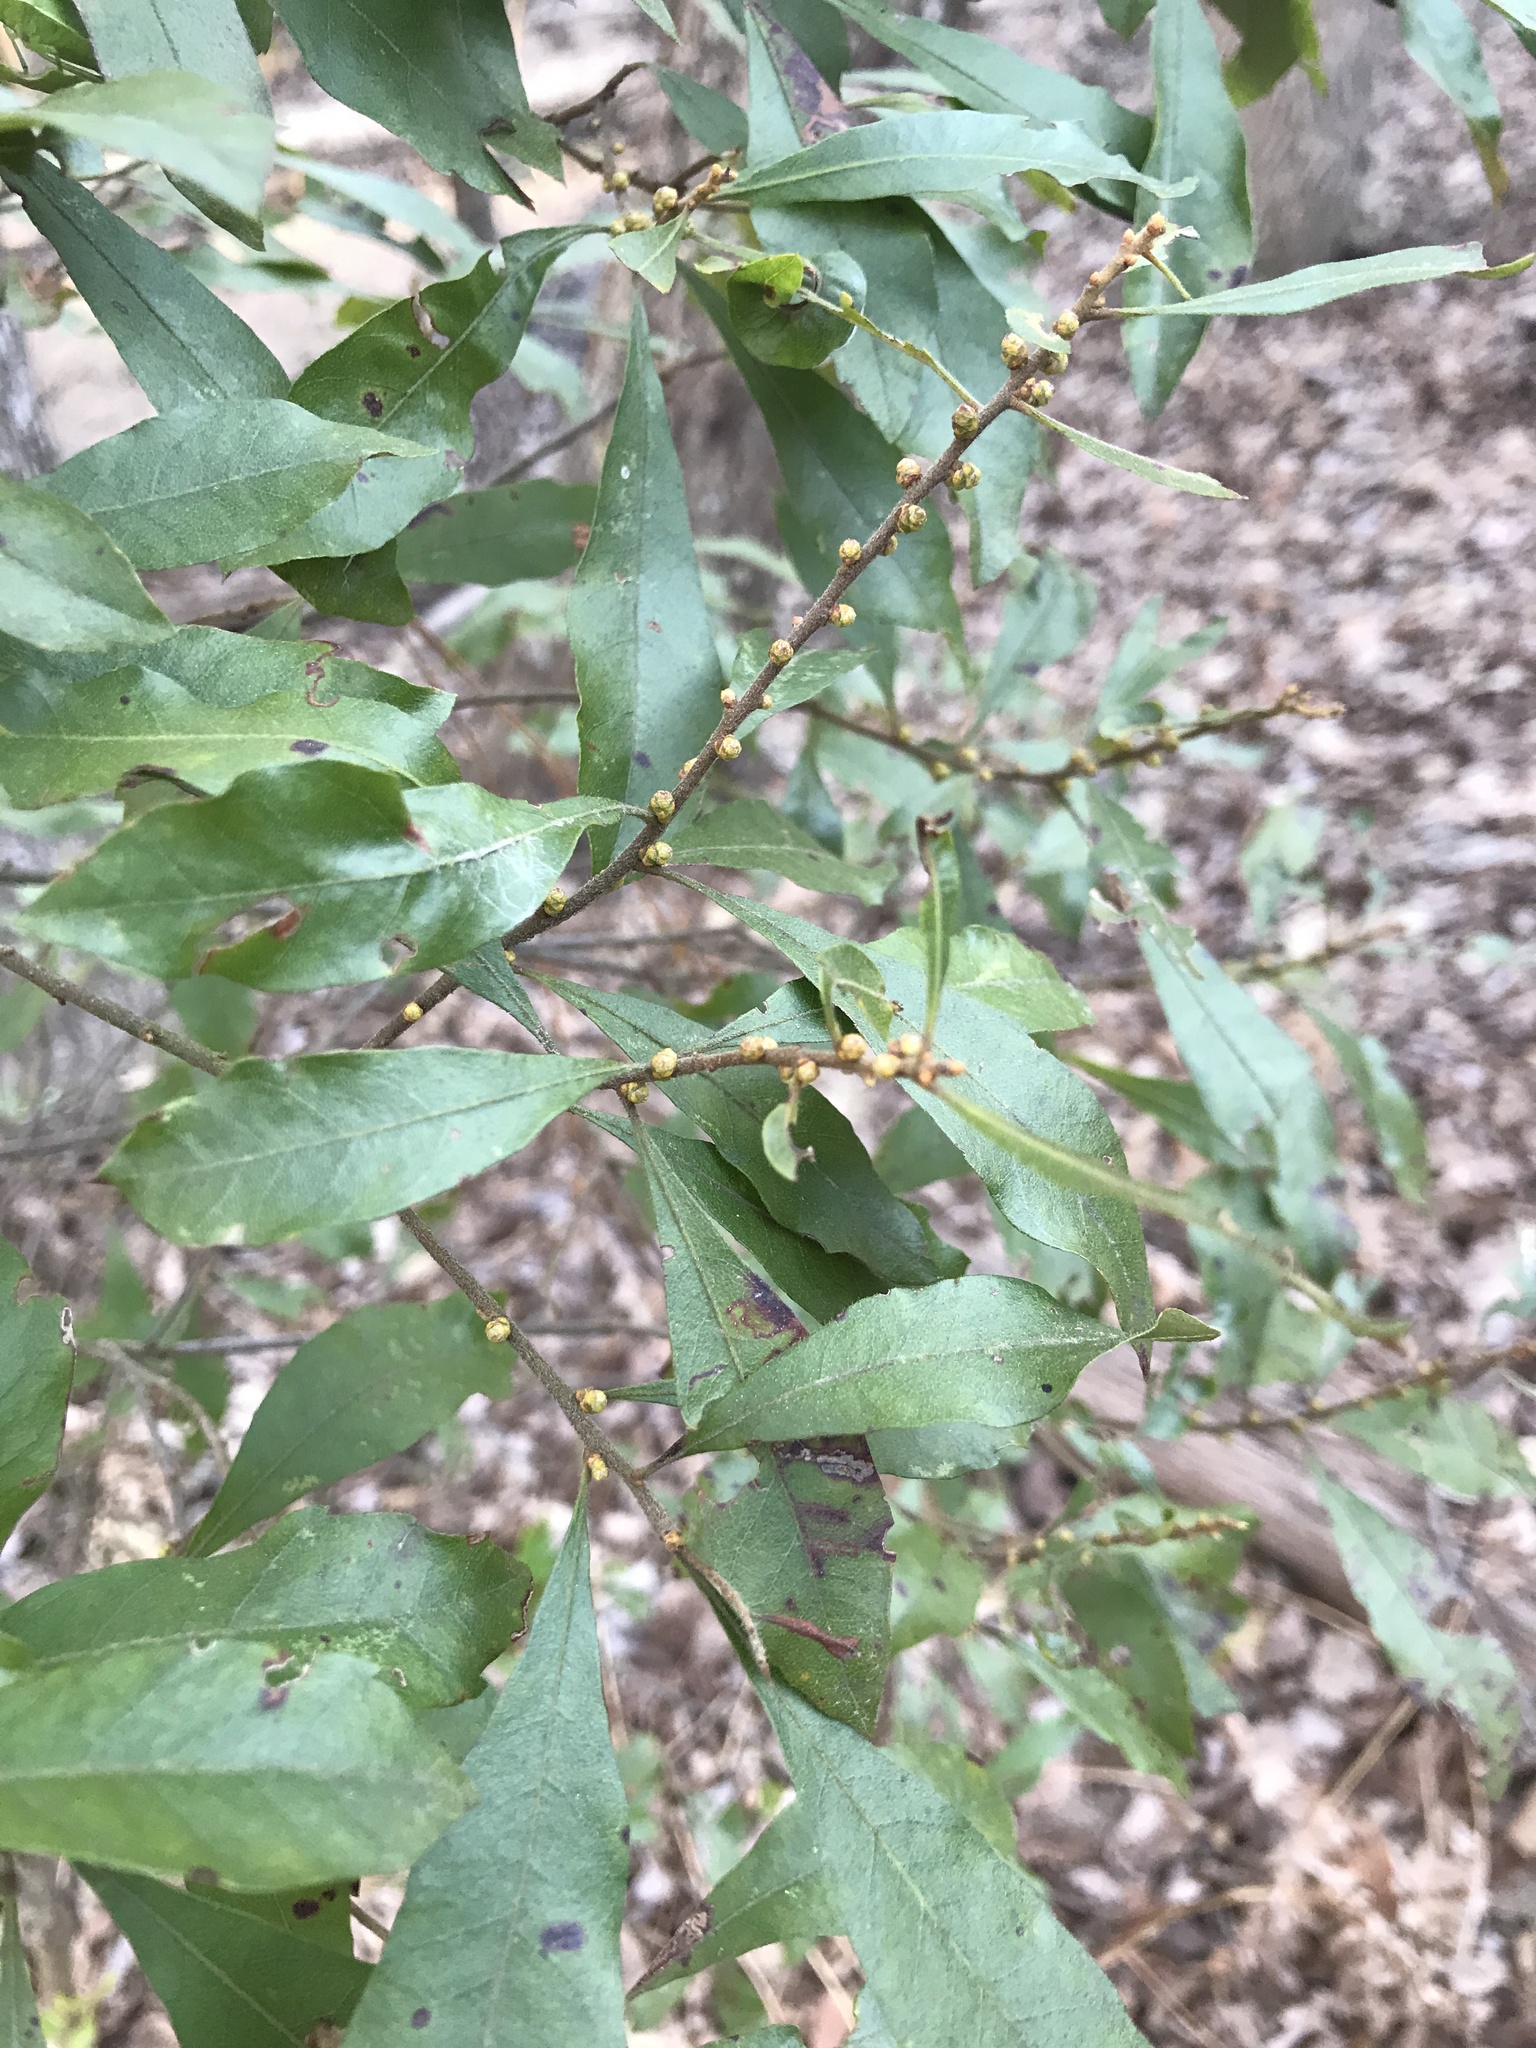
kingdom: Plantae
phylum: Tracheophyta
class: Magnoliopsida
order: Fagales
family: Myricaceae
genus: Morella
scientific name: Morella cerifera
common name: Wax myrtle
